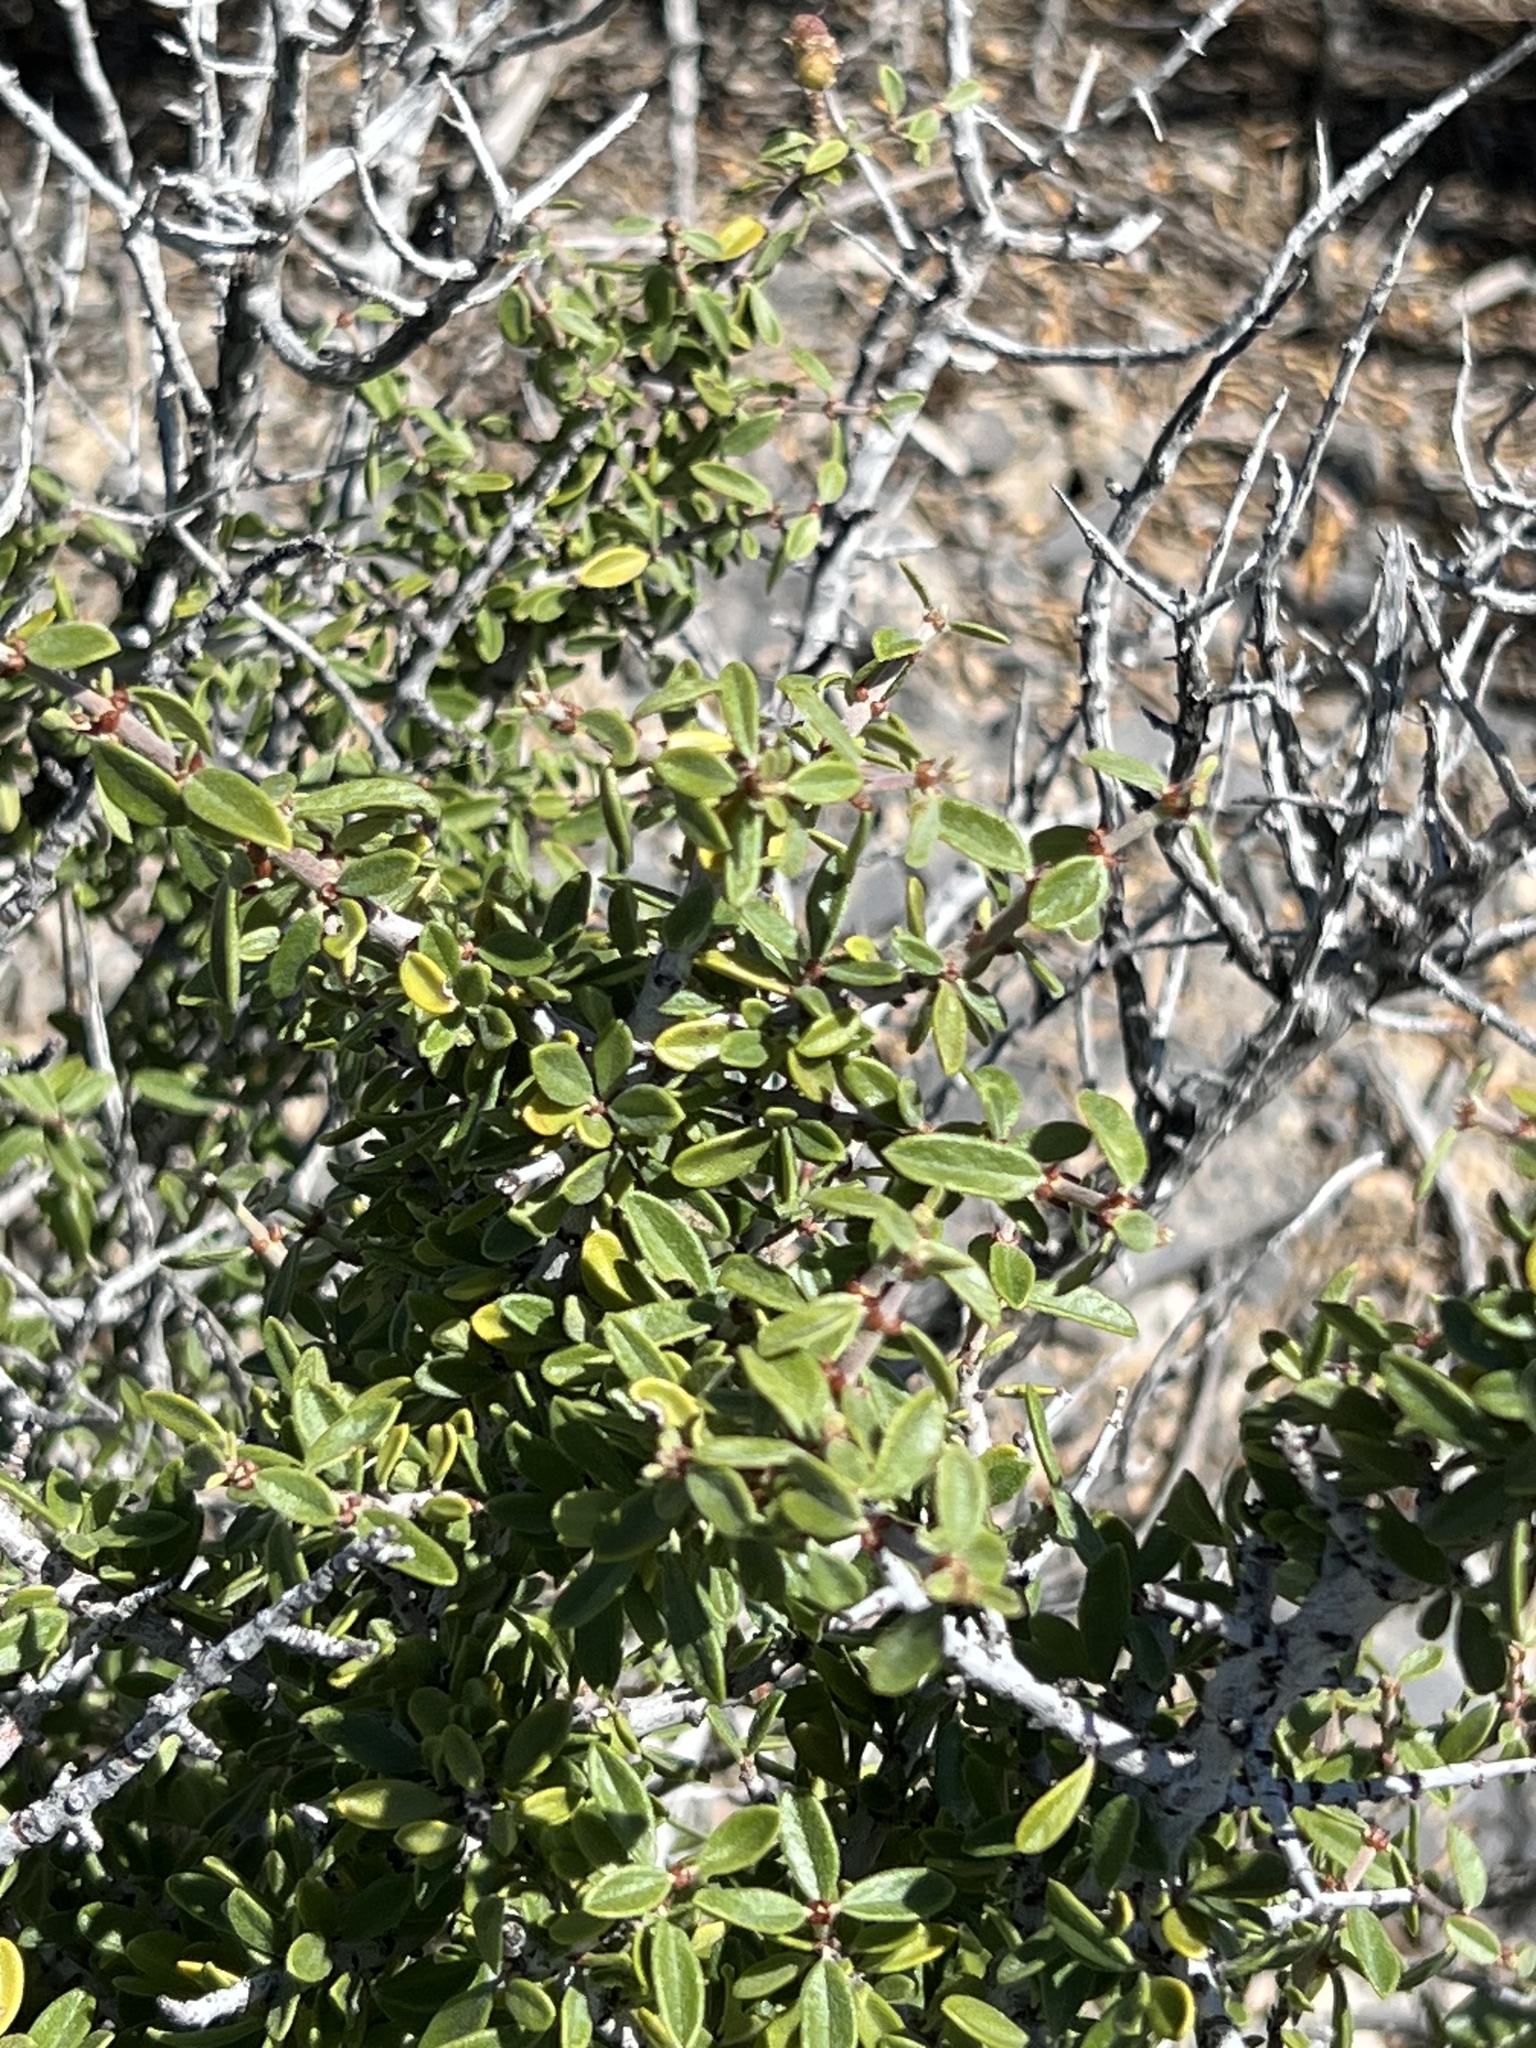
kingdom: Plantae
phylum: Tracheophyta
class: Magnoliopsida
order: Rosales
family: Rhamnaceae
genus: Ceanothus
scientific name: Ceanothus pauciflorus
